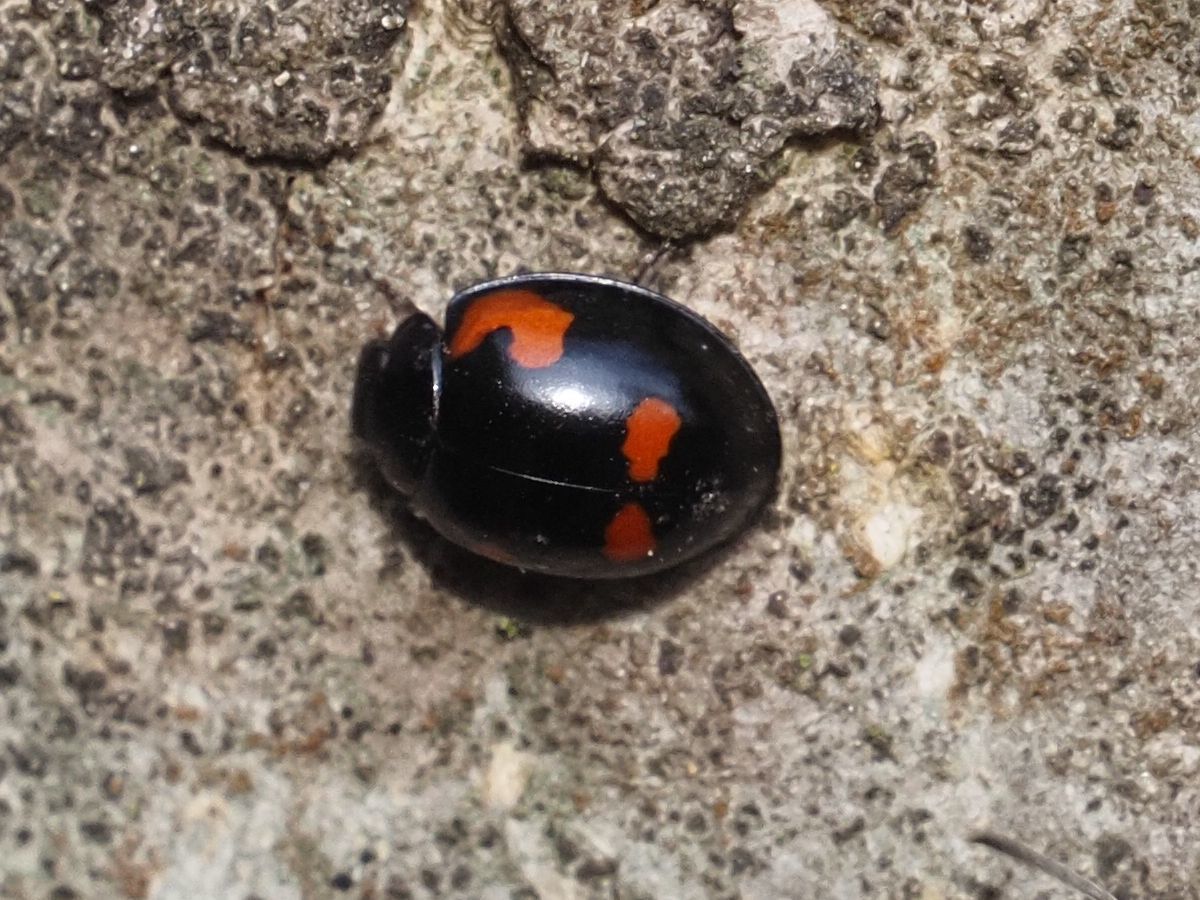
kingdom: Animalia
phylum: Arthropoda
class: Insecta
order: Coleoptera
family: Coccinellidae
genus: Brumus
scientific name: Brumus quadripustulatus
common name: Ladybird beetle
